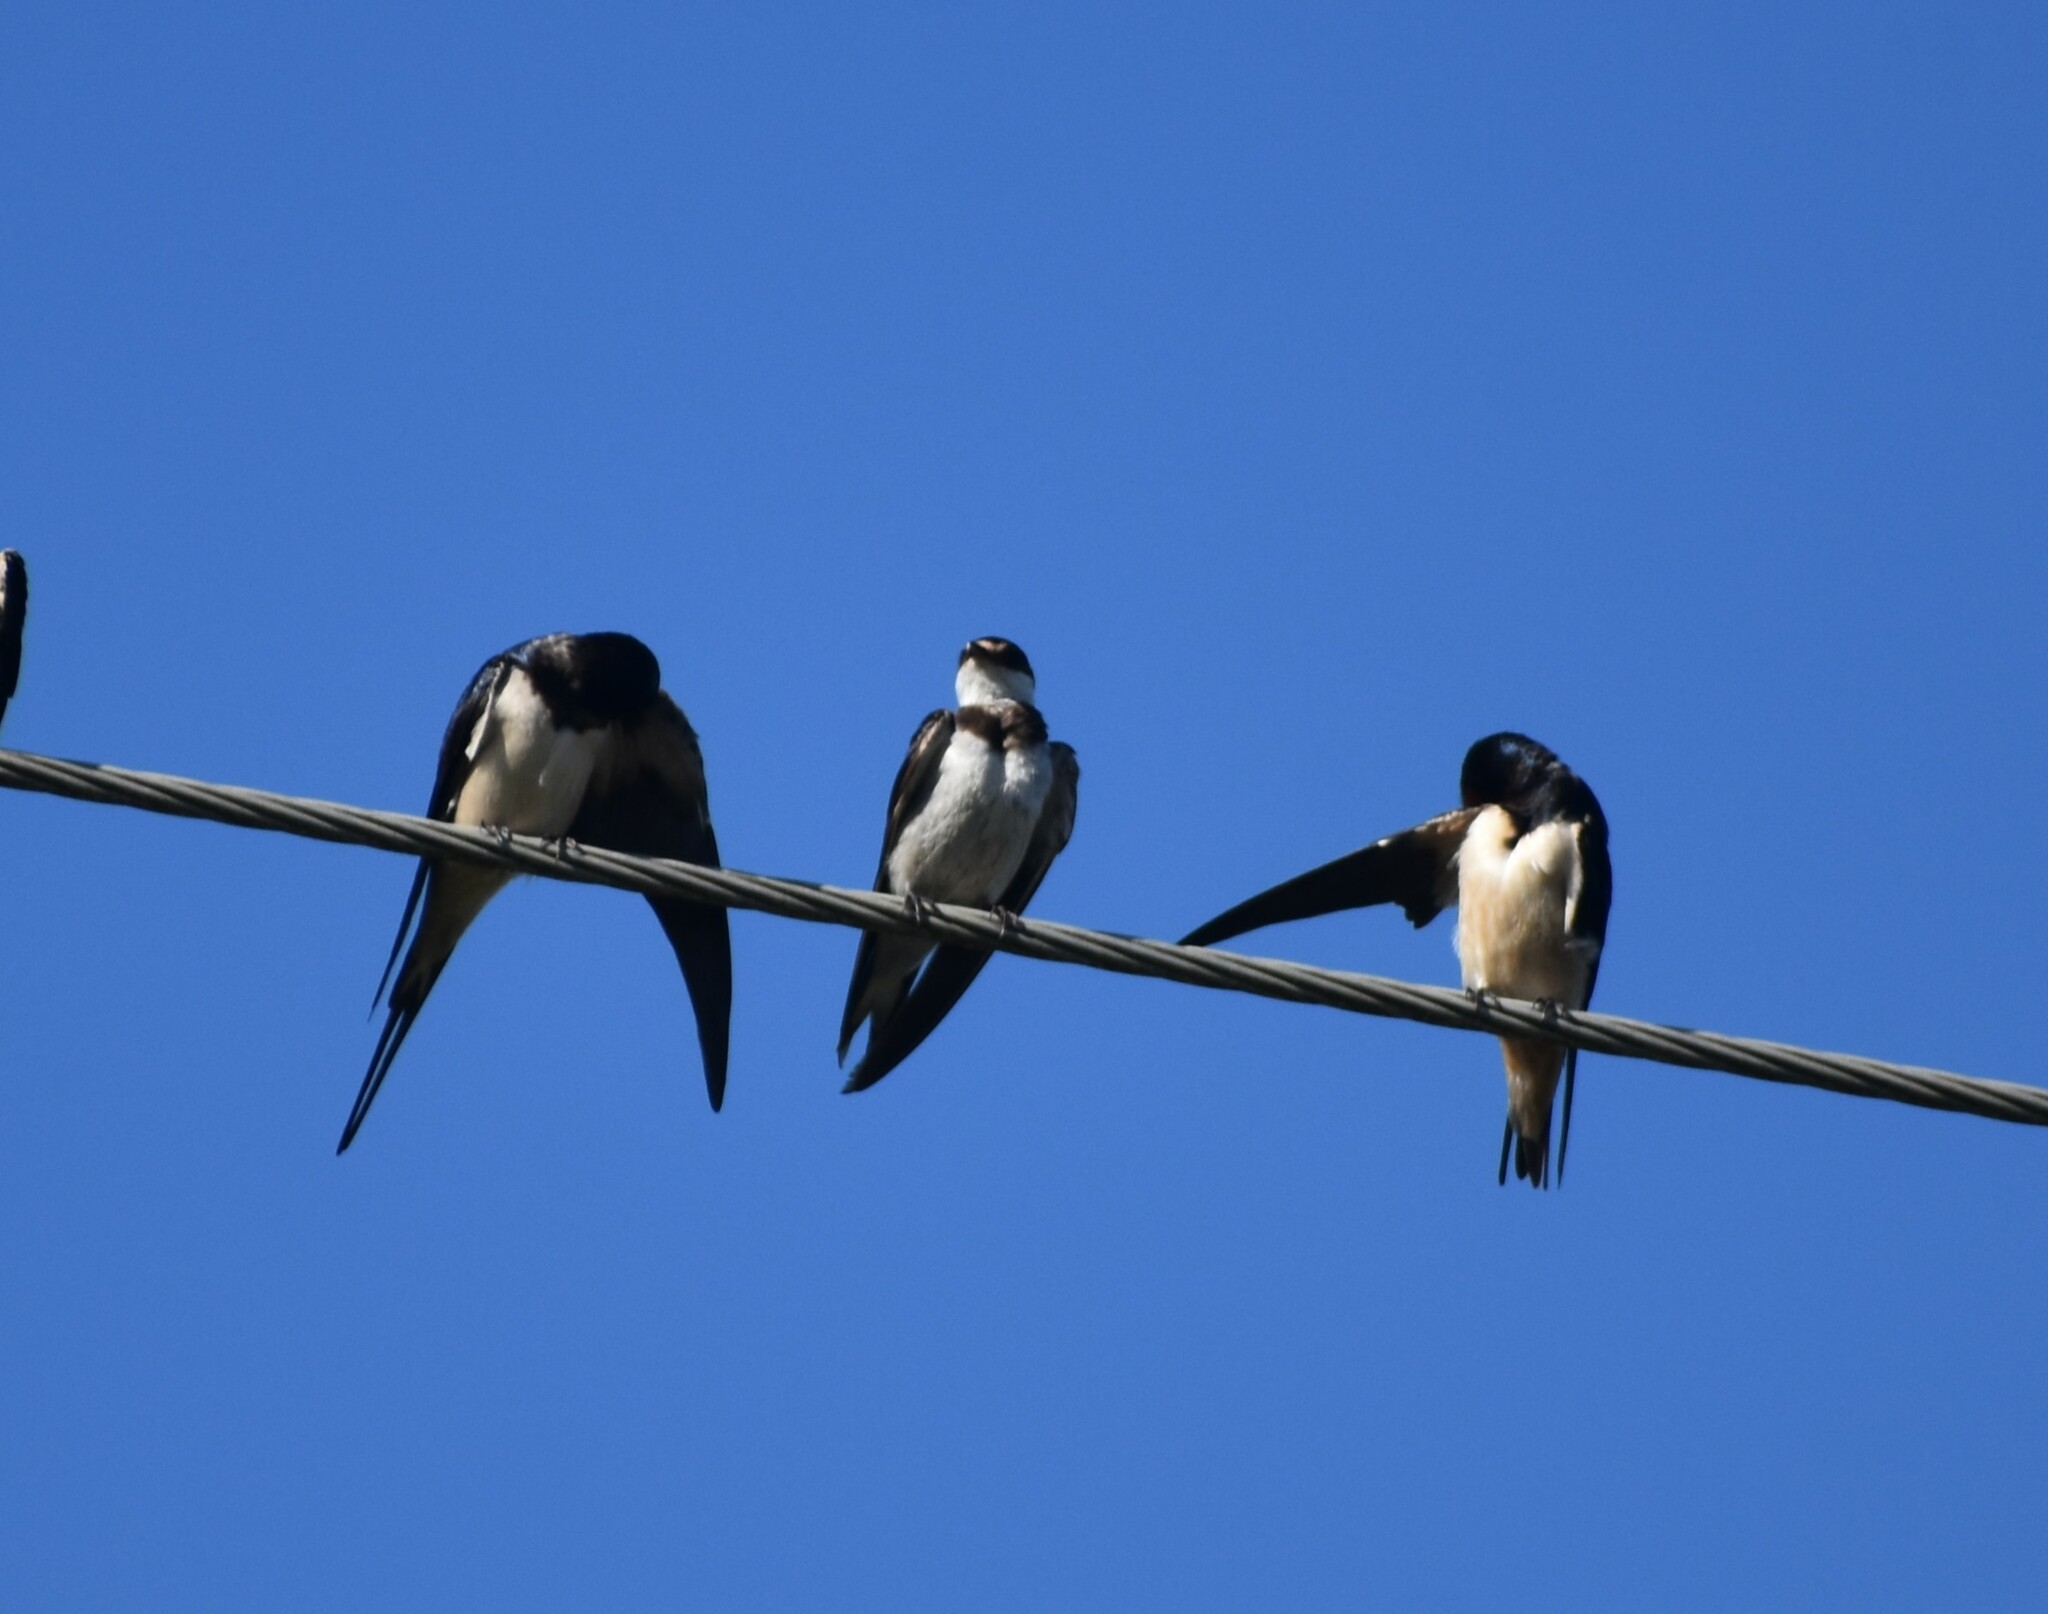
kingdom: Animalia
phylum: Chordata
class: Aves
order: Passeriformes
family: Hirundinidae
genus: Riparia
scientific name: Riparia cincta
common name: Banded martin
